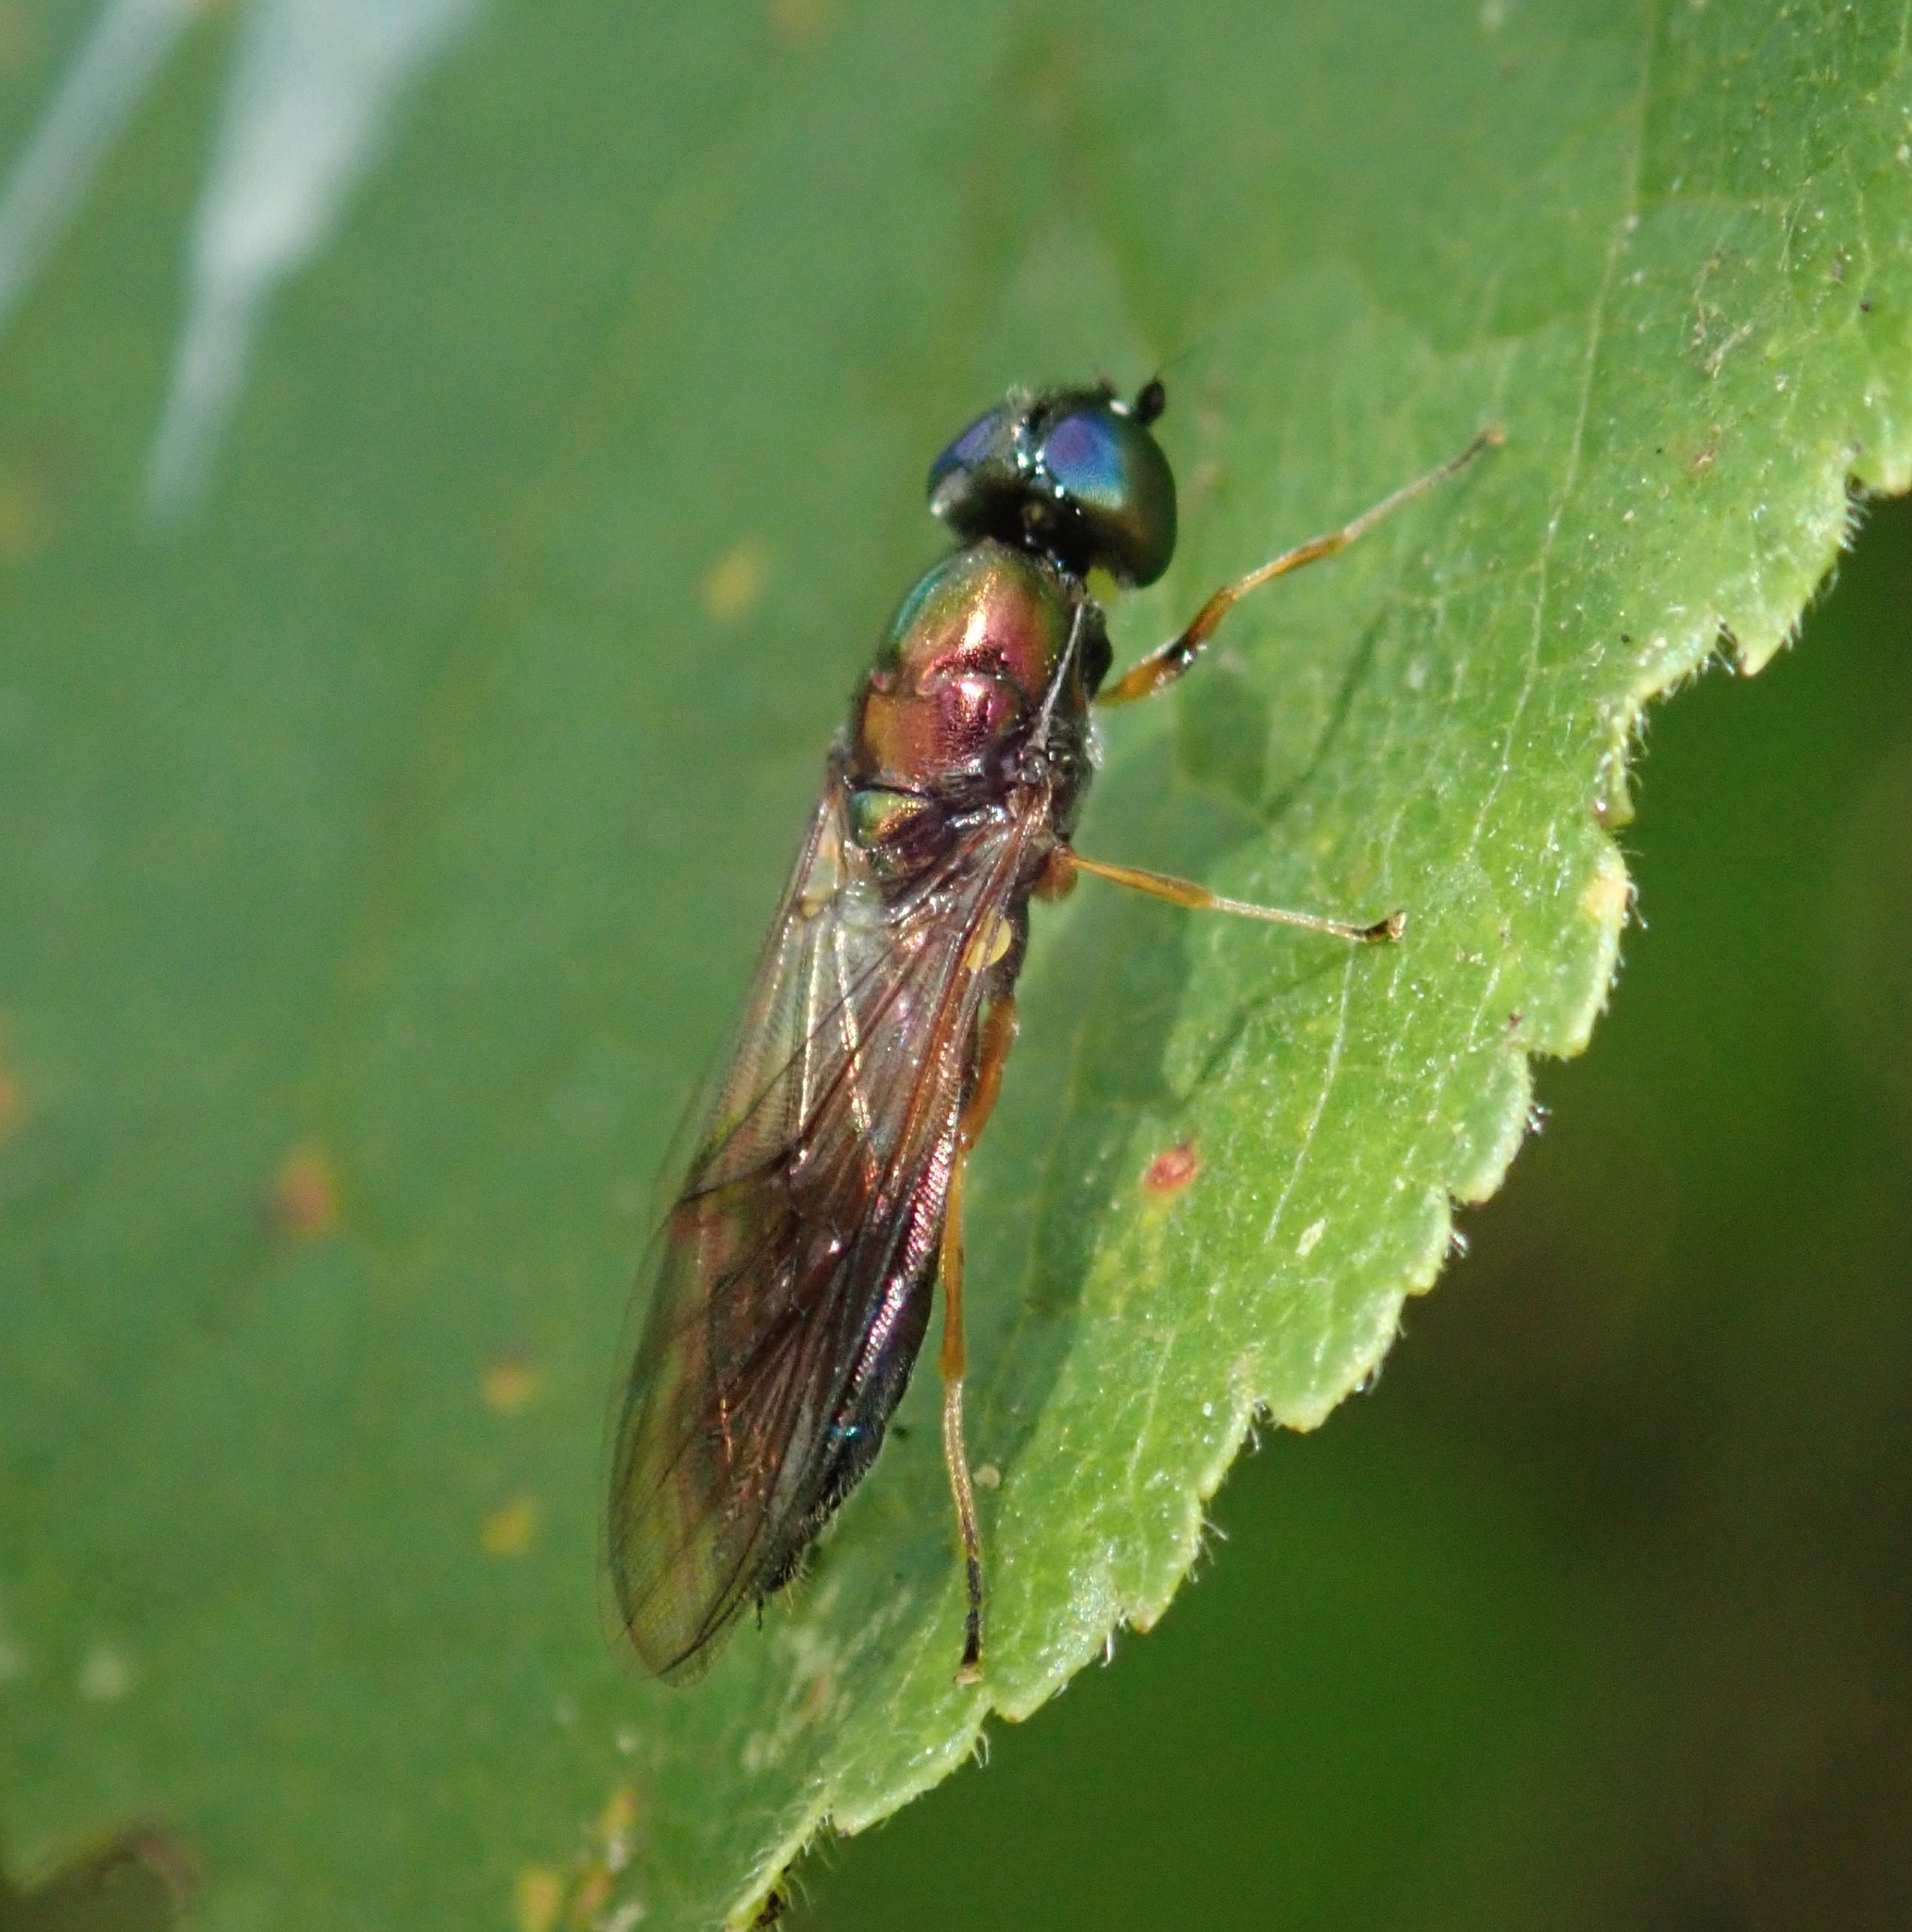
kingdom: Animalia
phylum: Arthropoda
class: Insecta
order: Diptera
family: Stratiomyidae
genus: Sargus
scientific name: Sargus bipunctatus
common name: Twin-spot centurion
